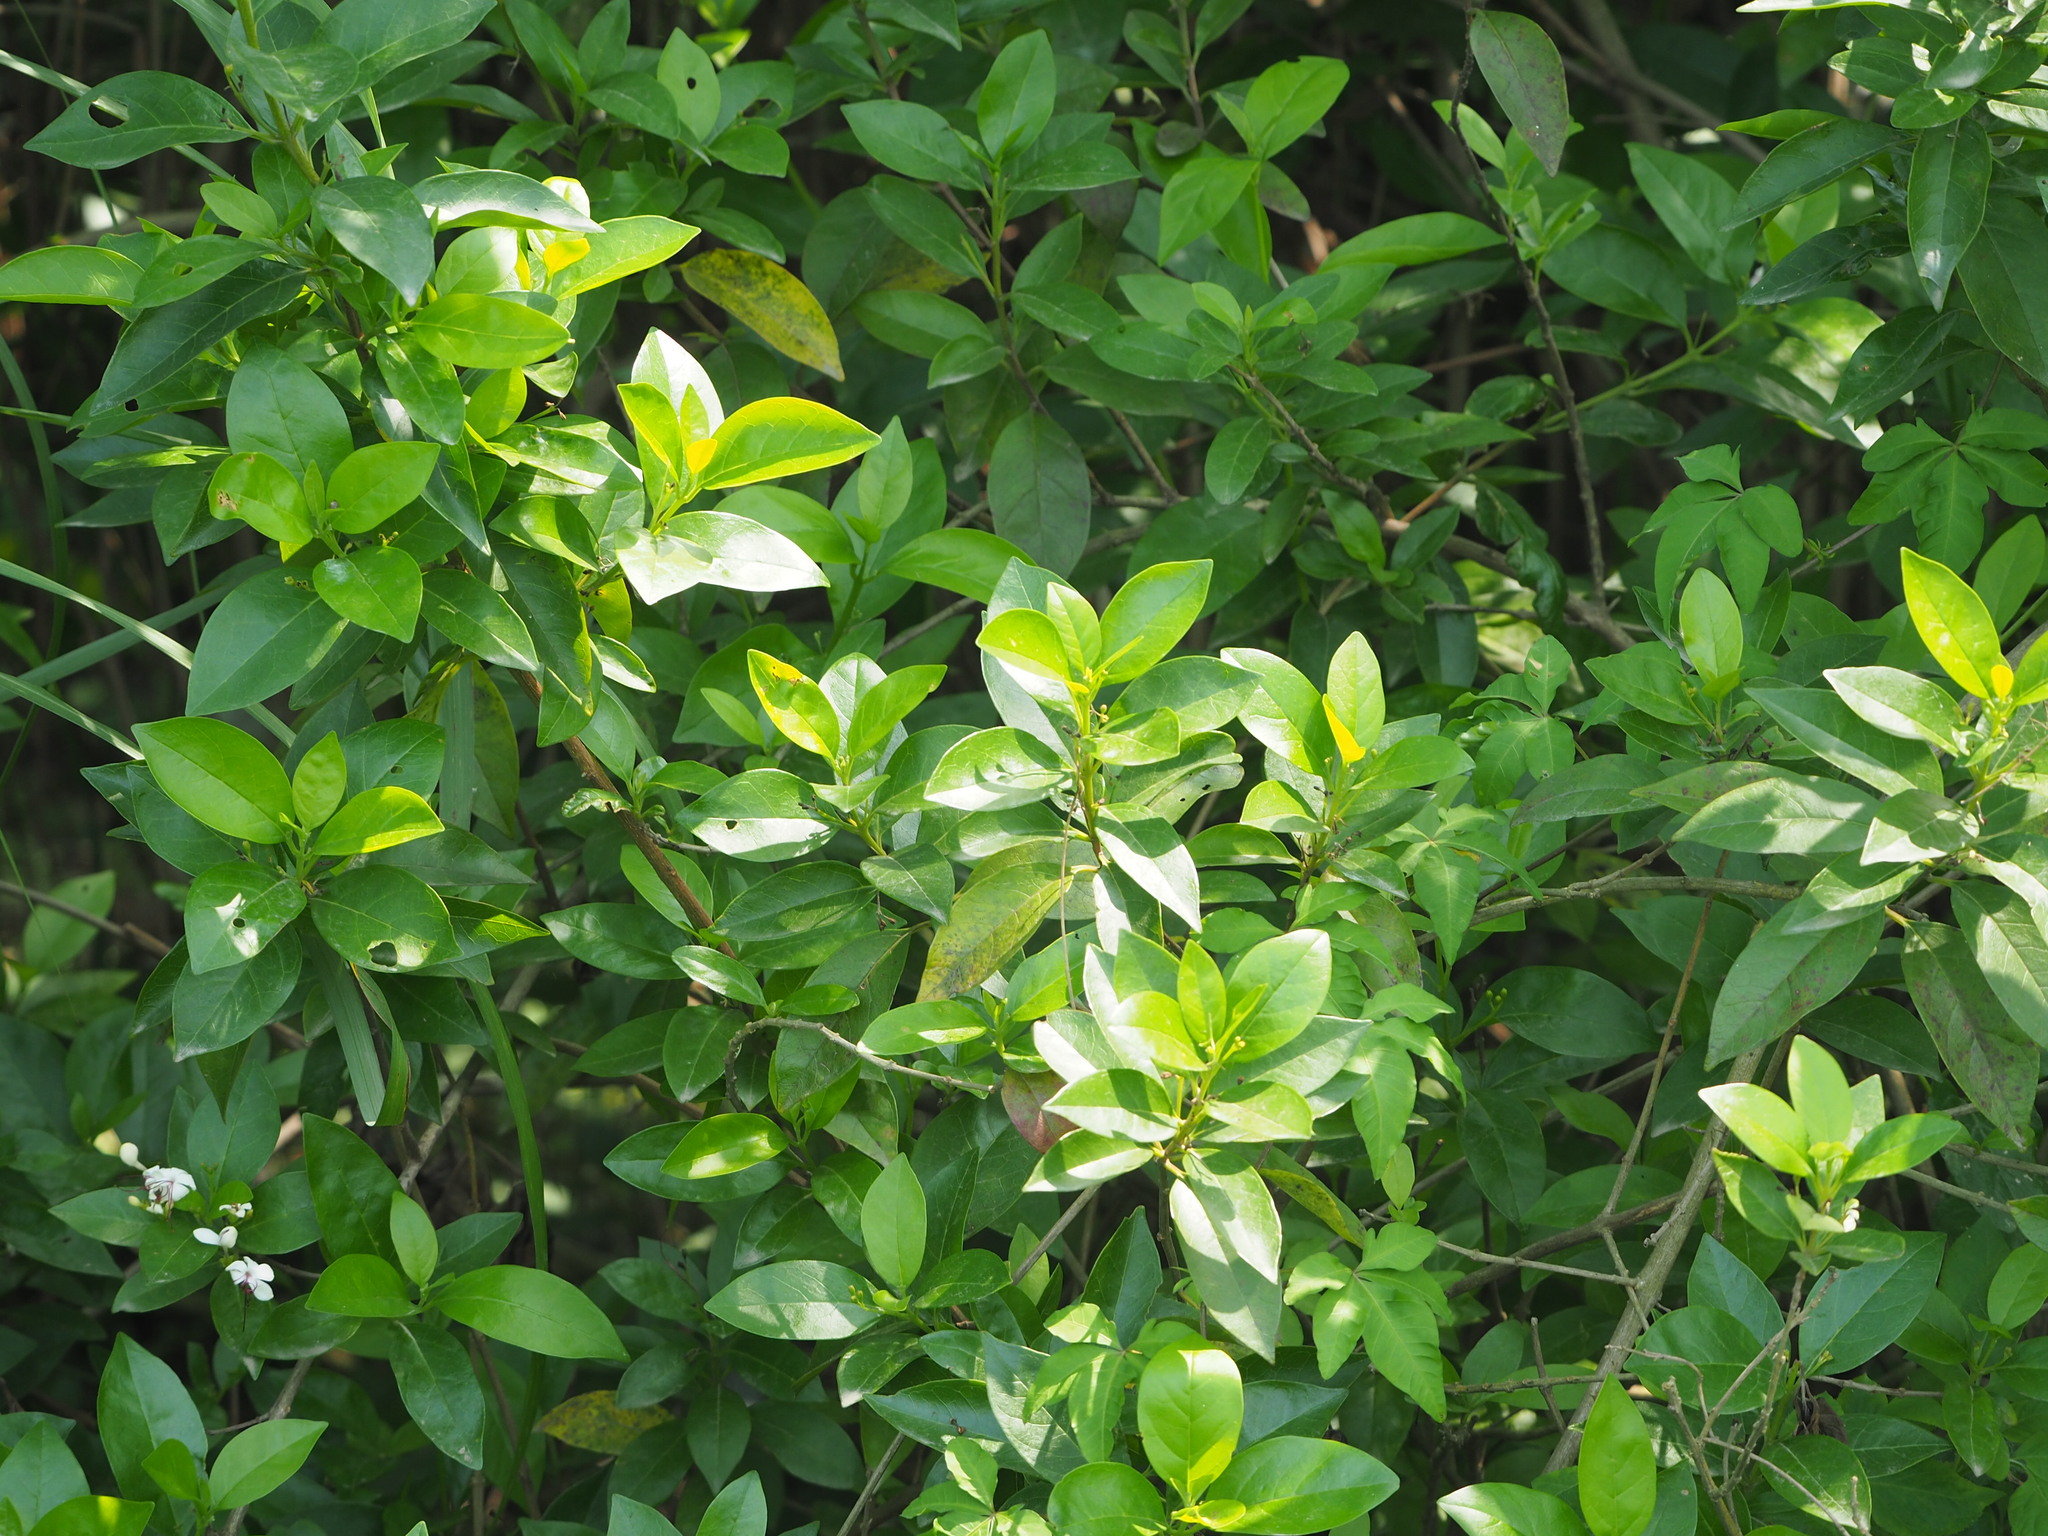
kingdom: Plantae
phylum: Tracheophyta
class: Magnoliopsida
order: Lamiales
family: Lamiaceae
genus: Volkameria
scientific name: Volkameria inermis
